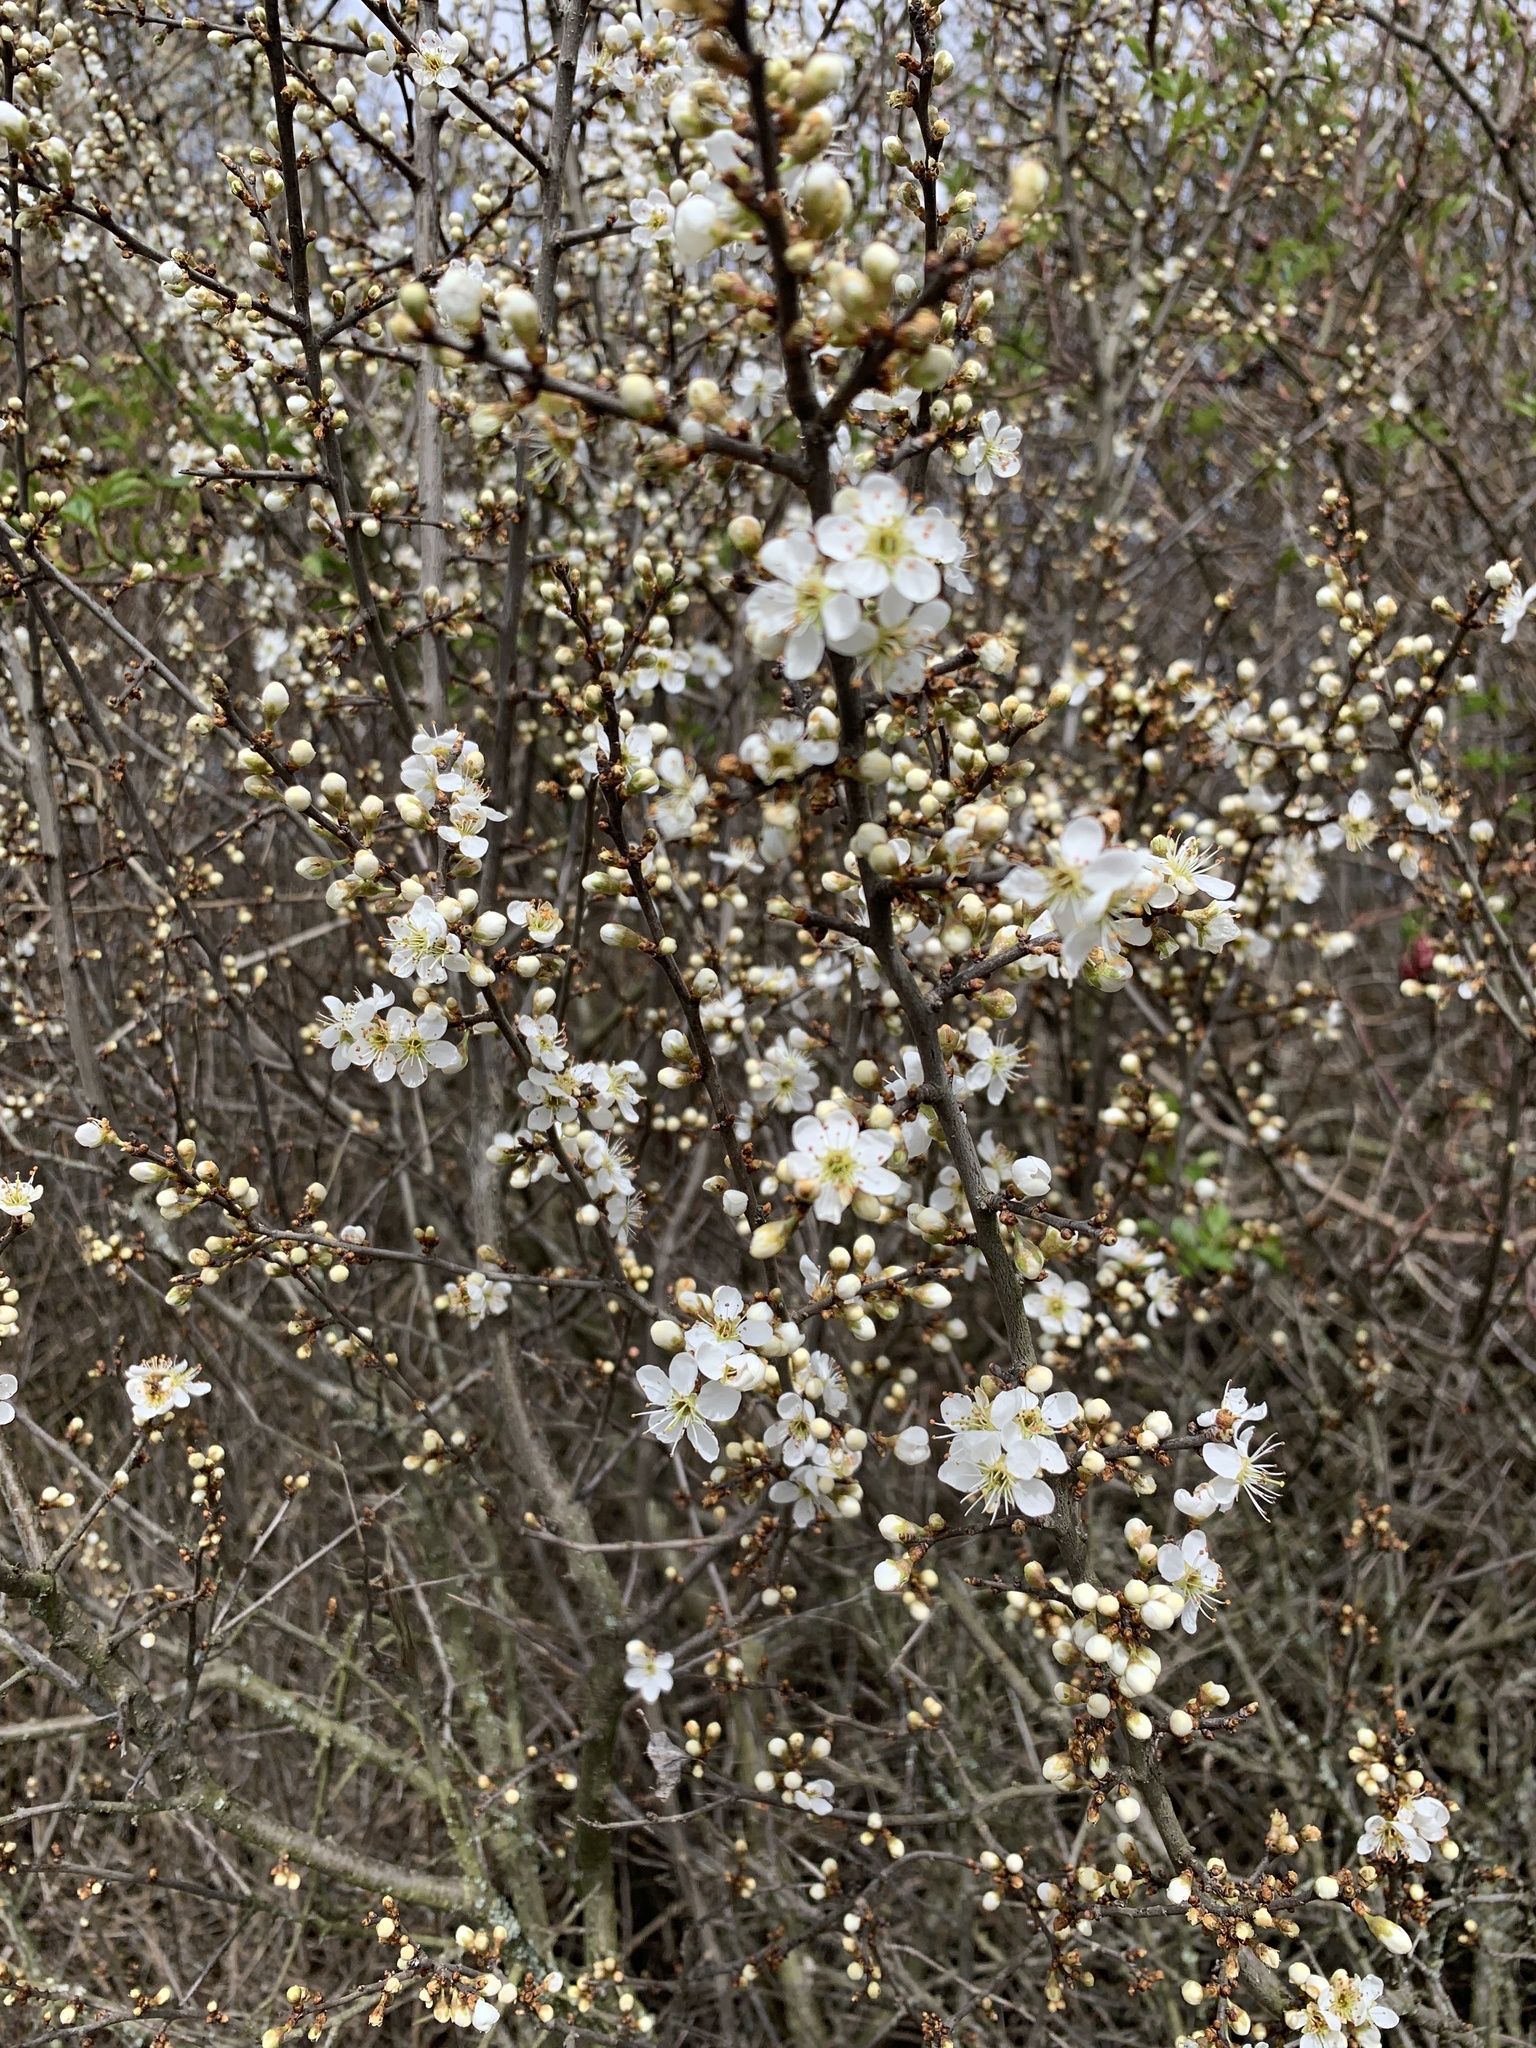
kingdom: Plantae
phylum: Tracheophyta
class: Magnoliopsida
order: Rosales
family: Rosaceae
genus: Prunus
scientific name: Prunus spinosa
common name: Blackthorn
